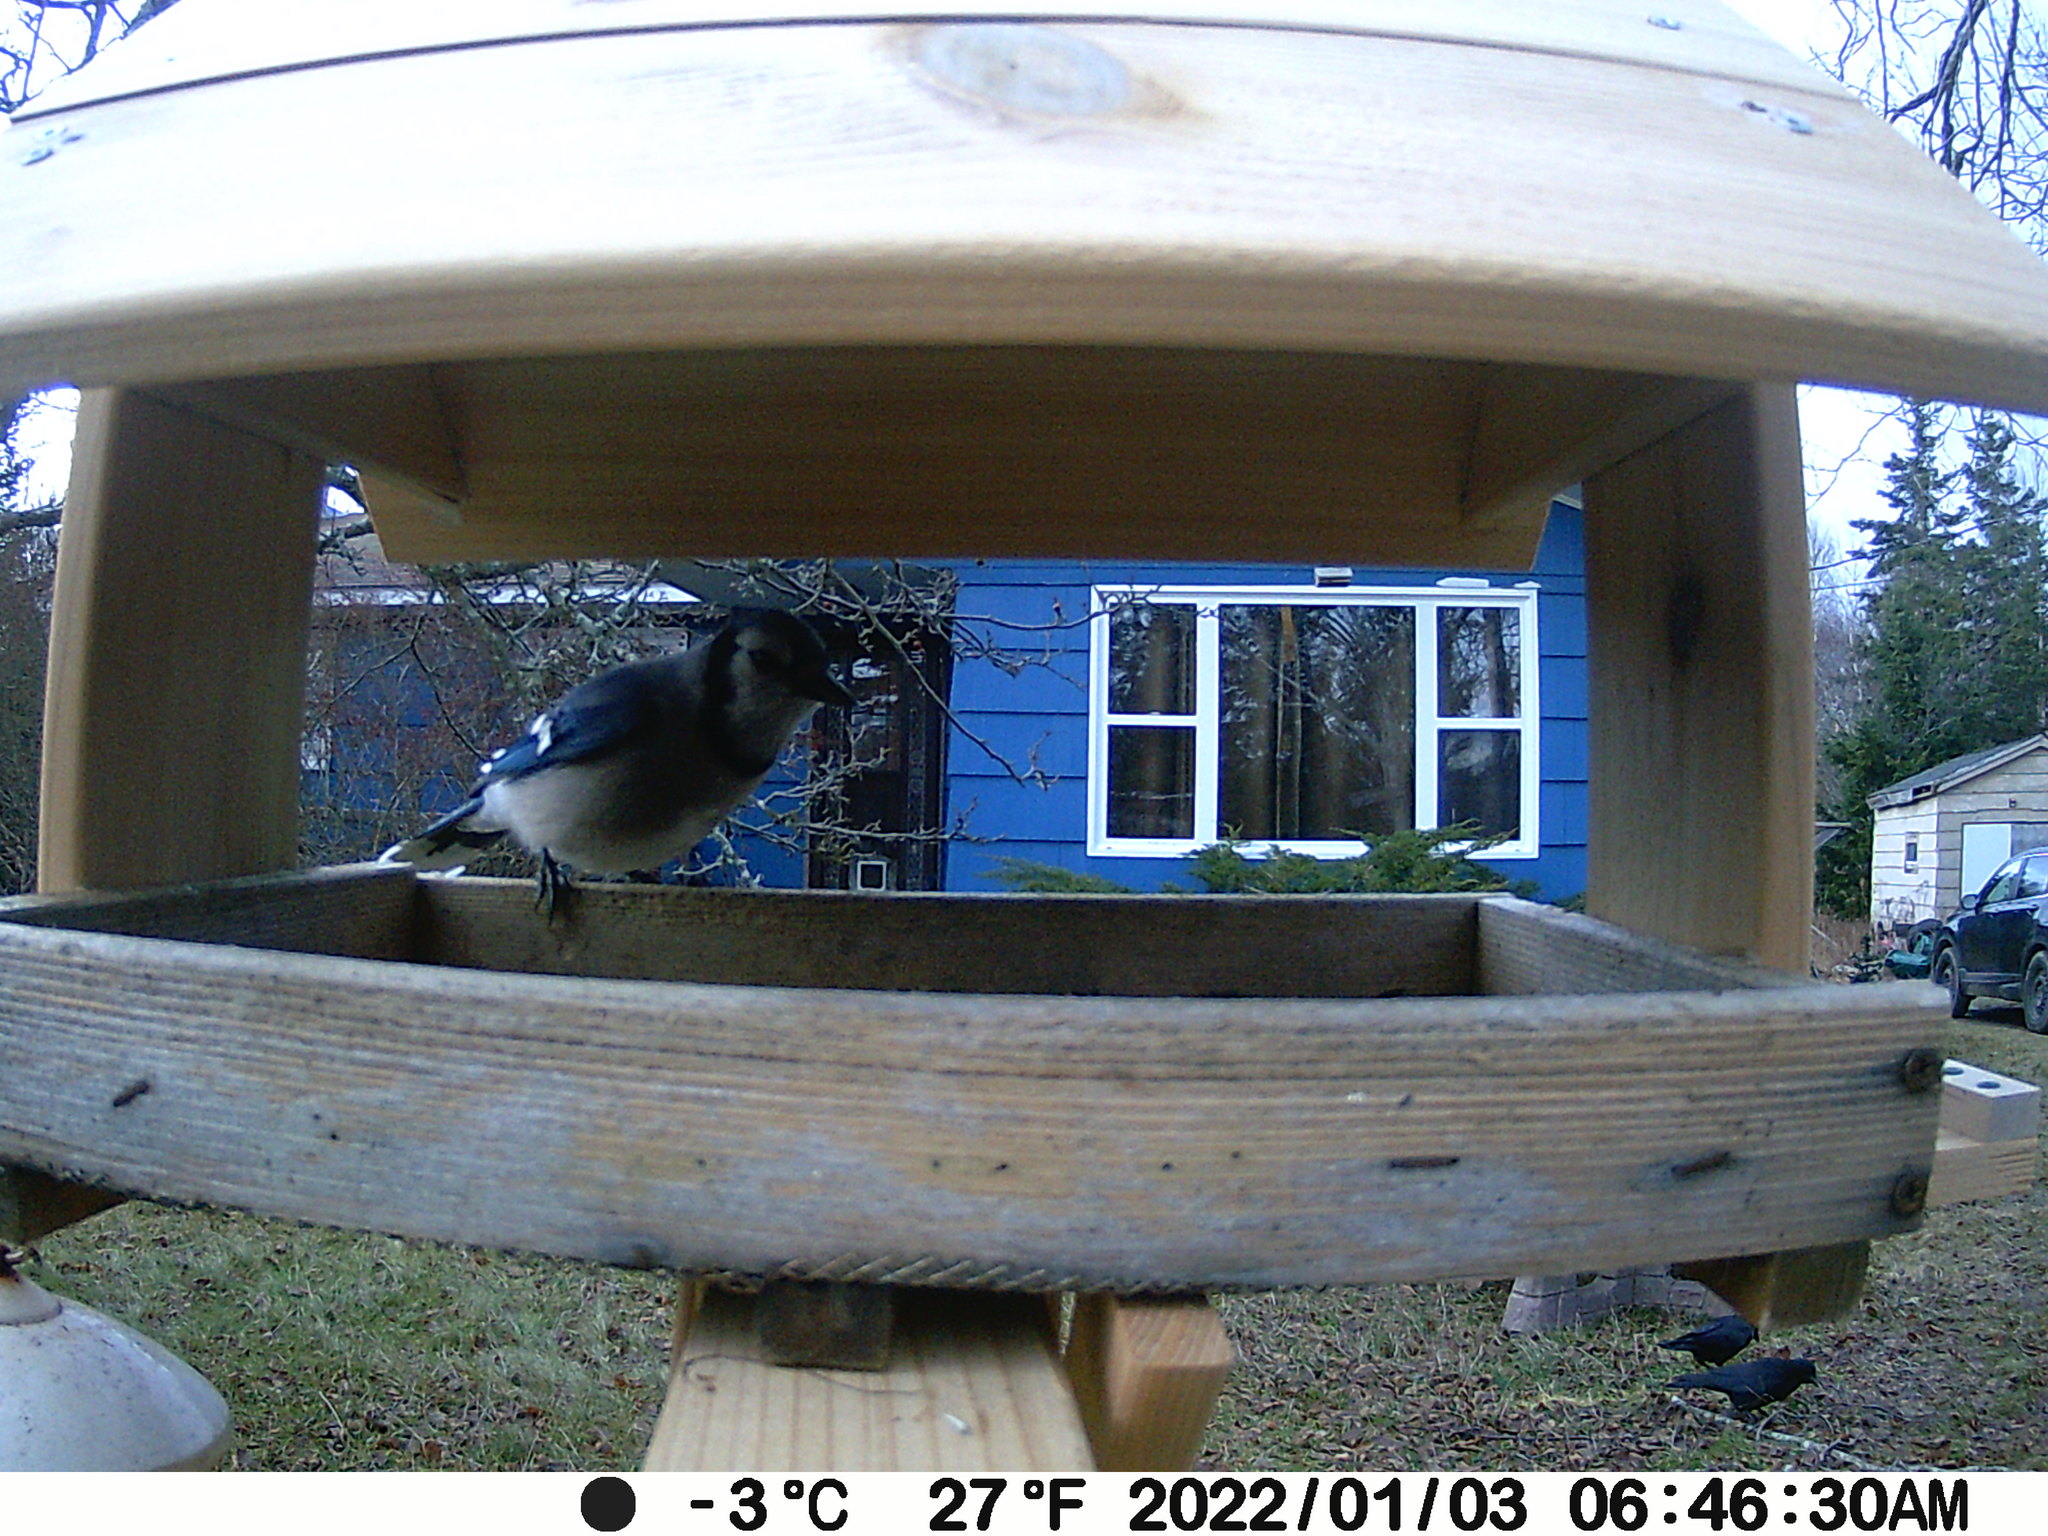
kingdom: Animalia
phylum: Chordata
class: Aves
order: Passeriformes
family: Corvidae
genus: Cyanocitta
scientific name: Cyanocitta cristata
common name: Blue jay
